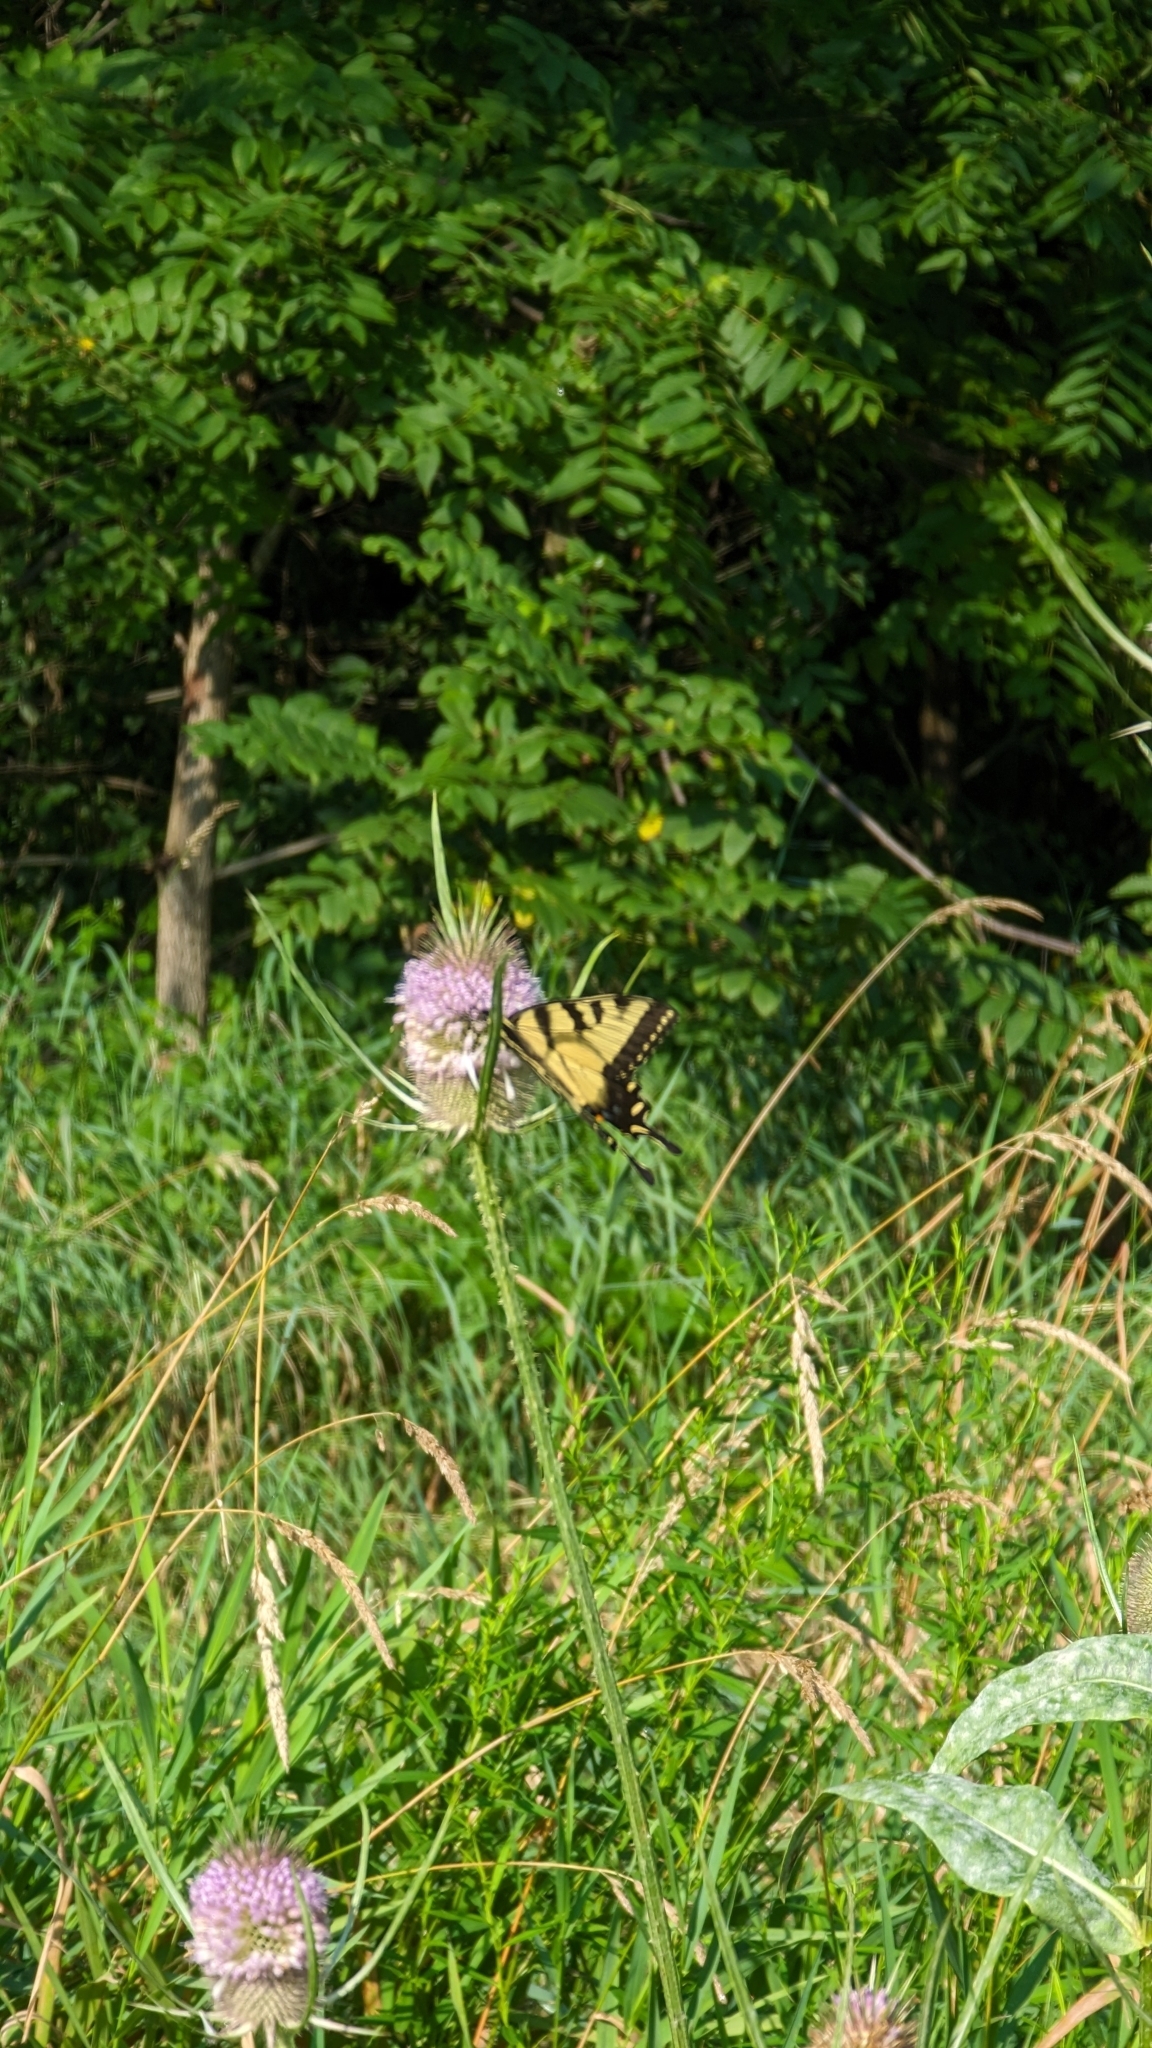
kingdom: Animalia
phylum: Arthropoda
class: Insecta
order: Lepidoptera
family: Papilionidae
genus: Papilio
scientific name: Papilio glaucus
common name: Tiger swallowtail
